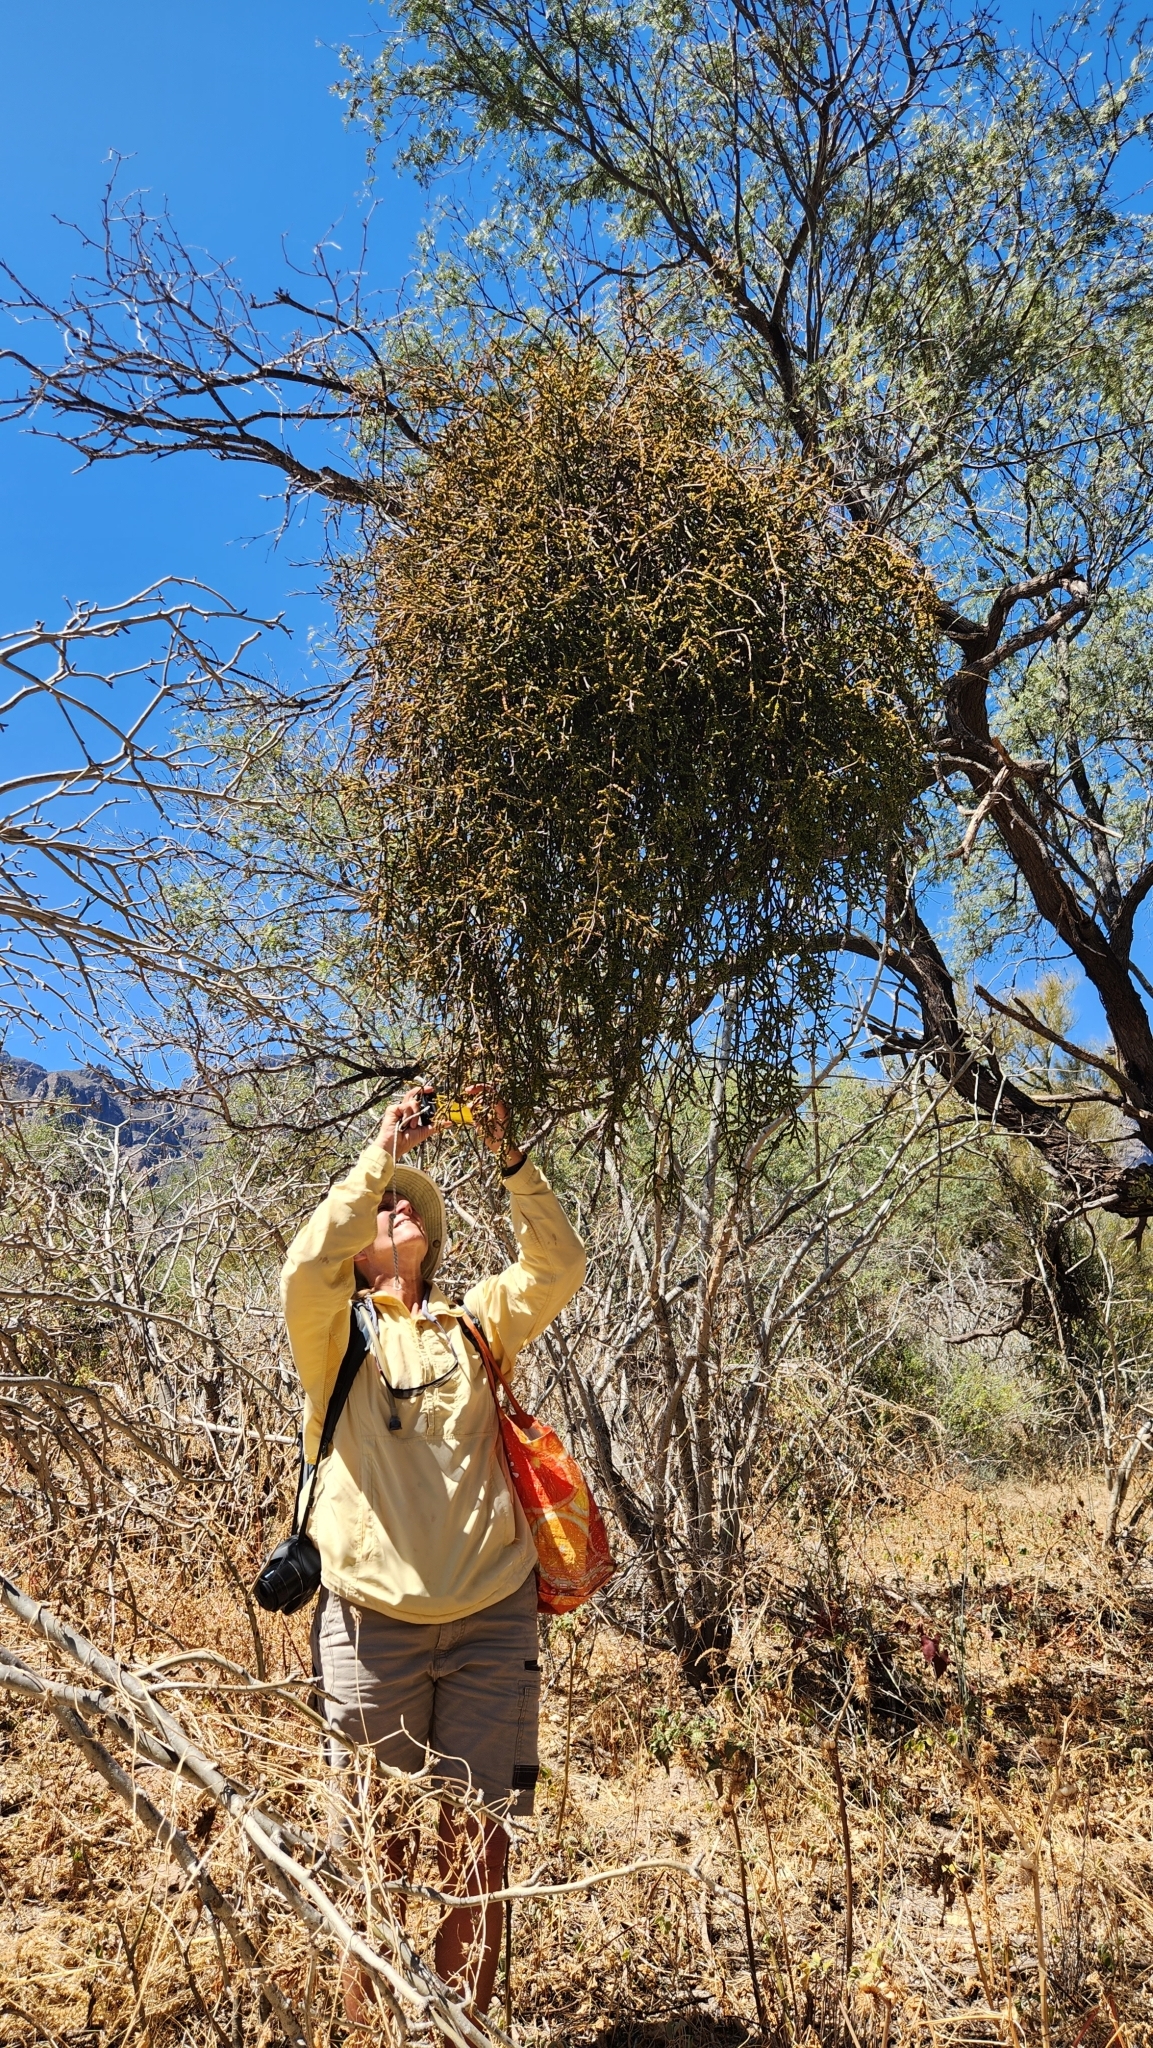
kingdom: Plantae
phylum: Tracheophyta
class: Magnoliopsida
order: Santalales
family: Viscaceae
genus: Phoradendron
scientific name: Phoradendron californicum
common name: Acacia mistletoe
